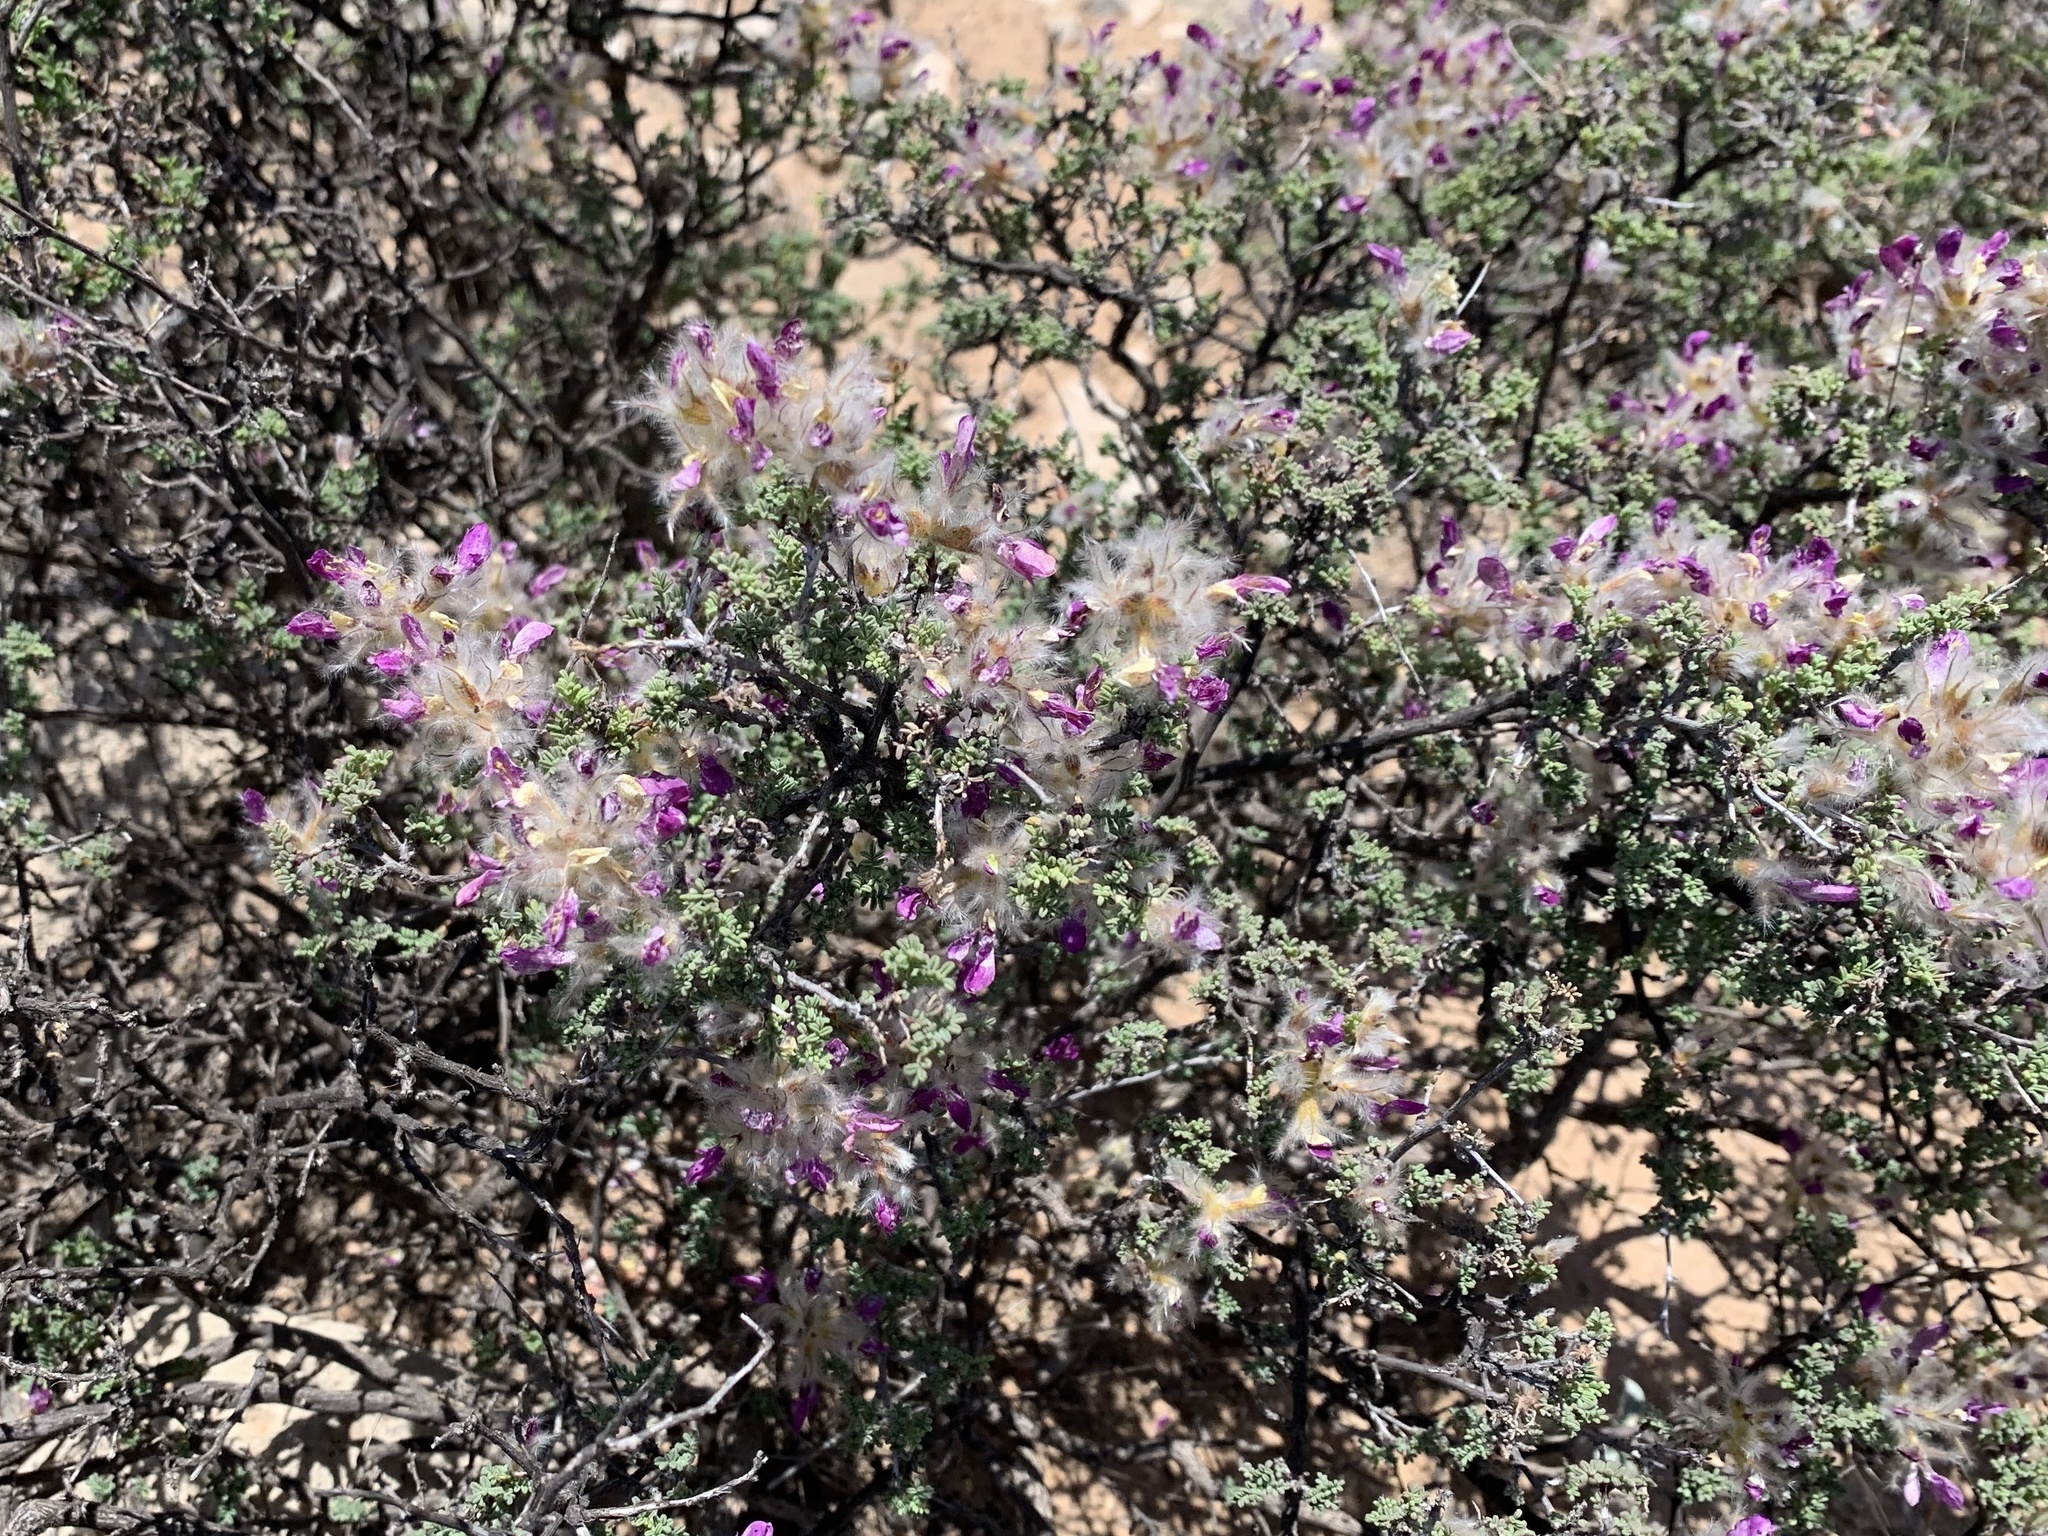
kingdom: Plantae
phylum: Tracheophyta
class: Magnoliopsida
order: Fabales
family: Fabaceae
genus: Dalea
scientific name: Dalea formosa
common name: Feather-plume dalea
